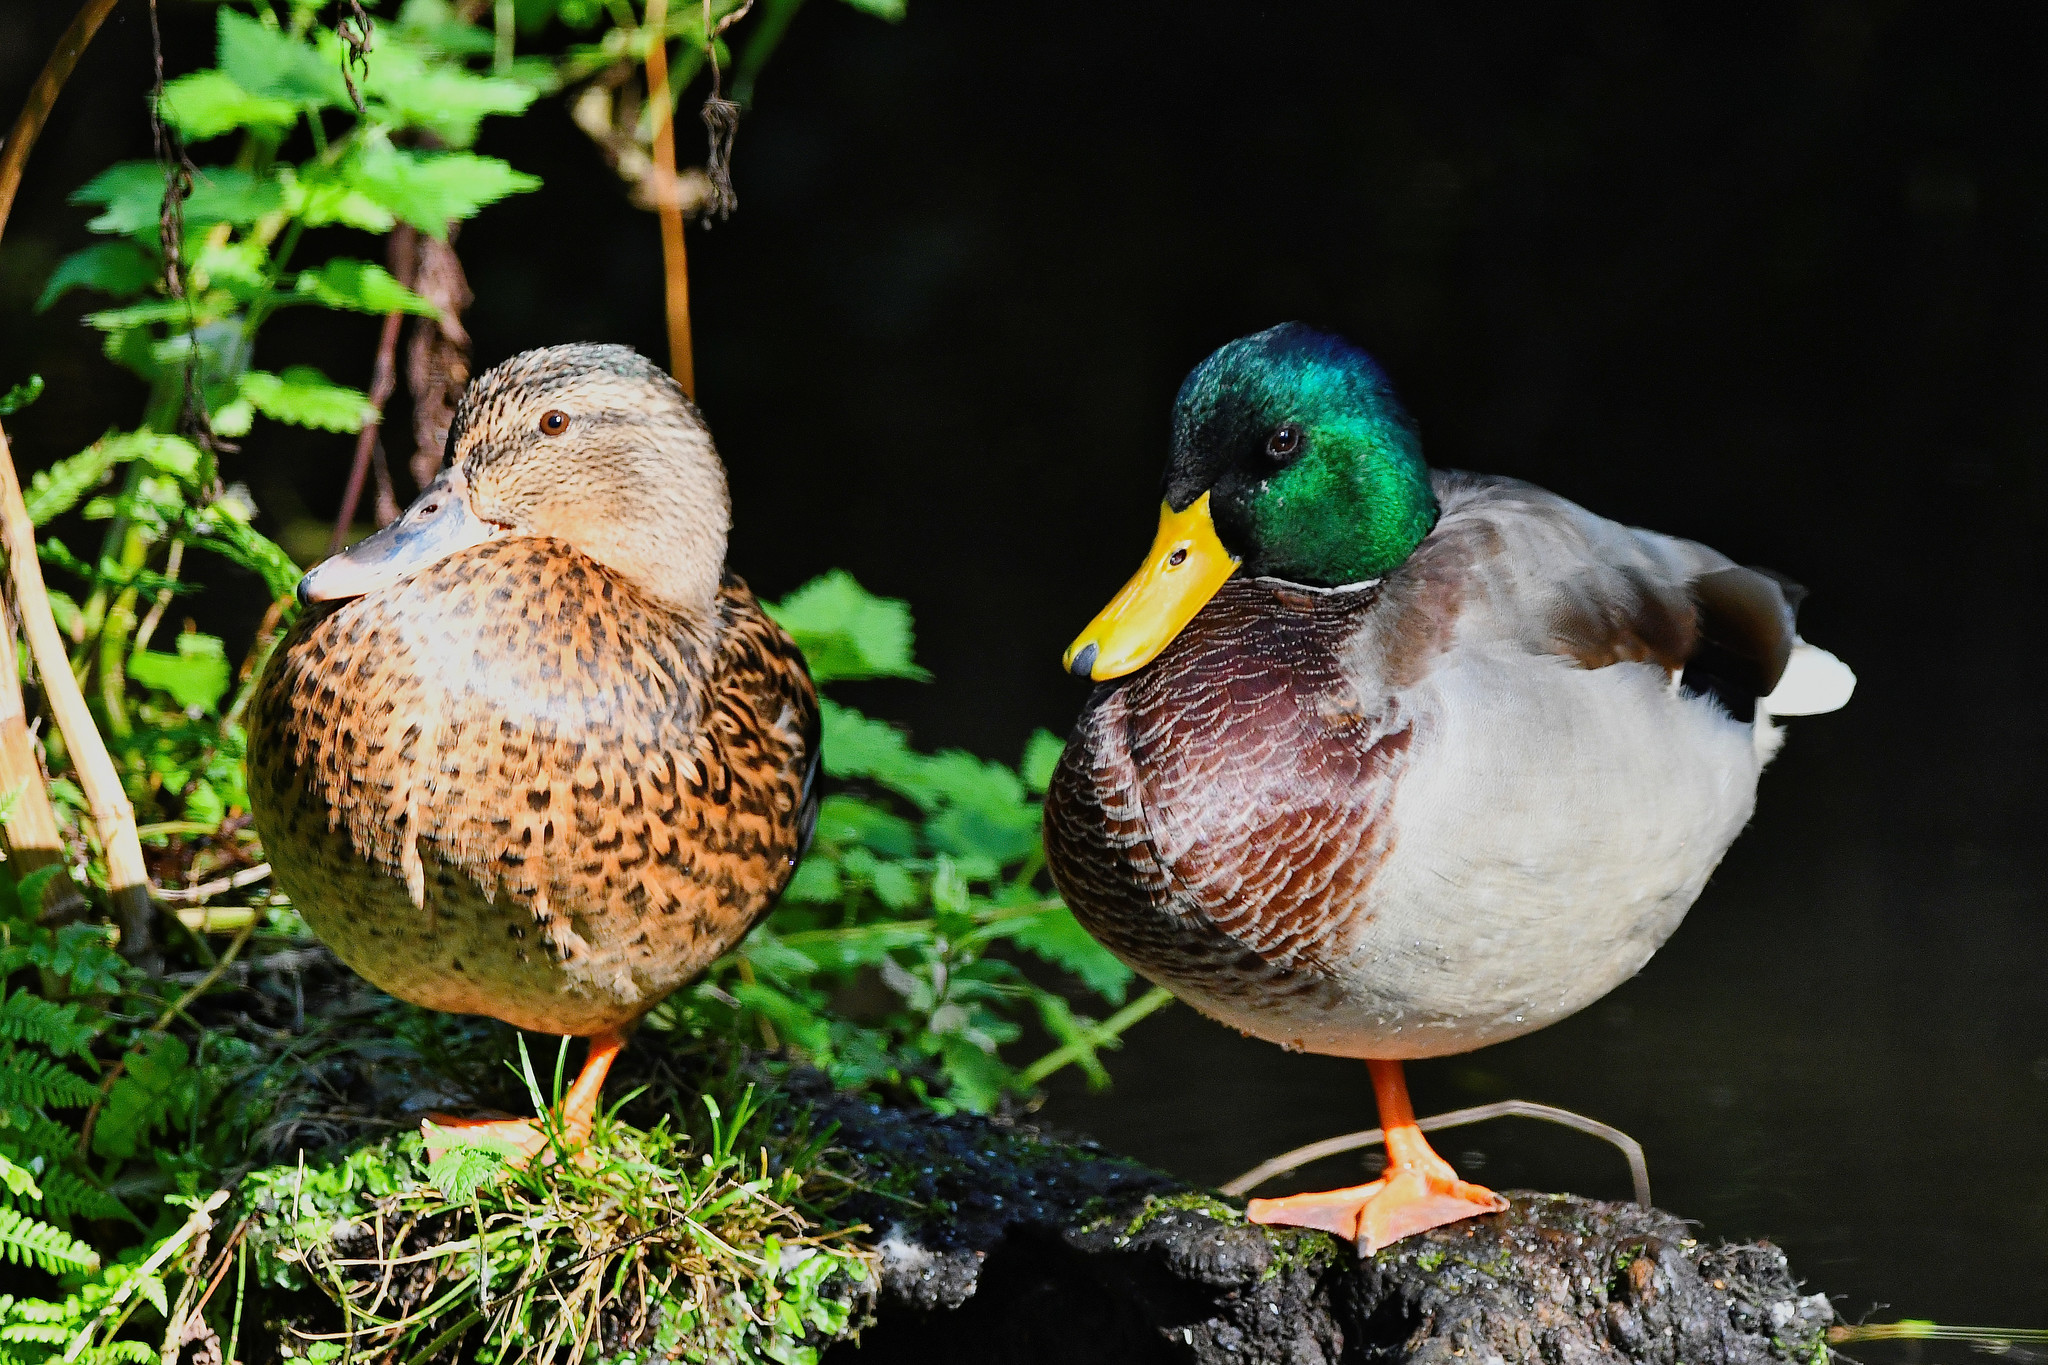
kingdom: Animalia
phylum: Chordata
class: Aves
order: Anseriformes
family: Anatidae
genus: Anas
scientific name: Anas platyrhynchos
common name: Mallard
